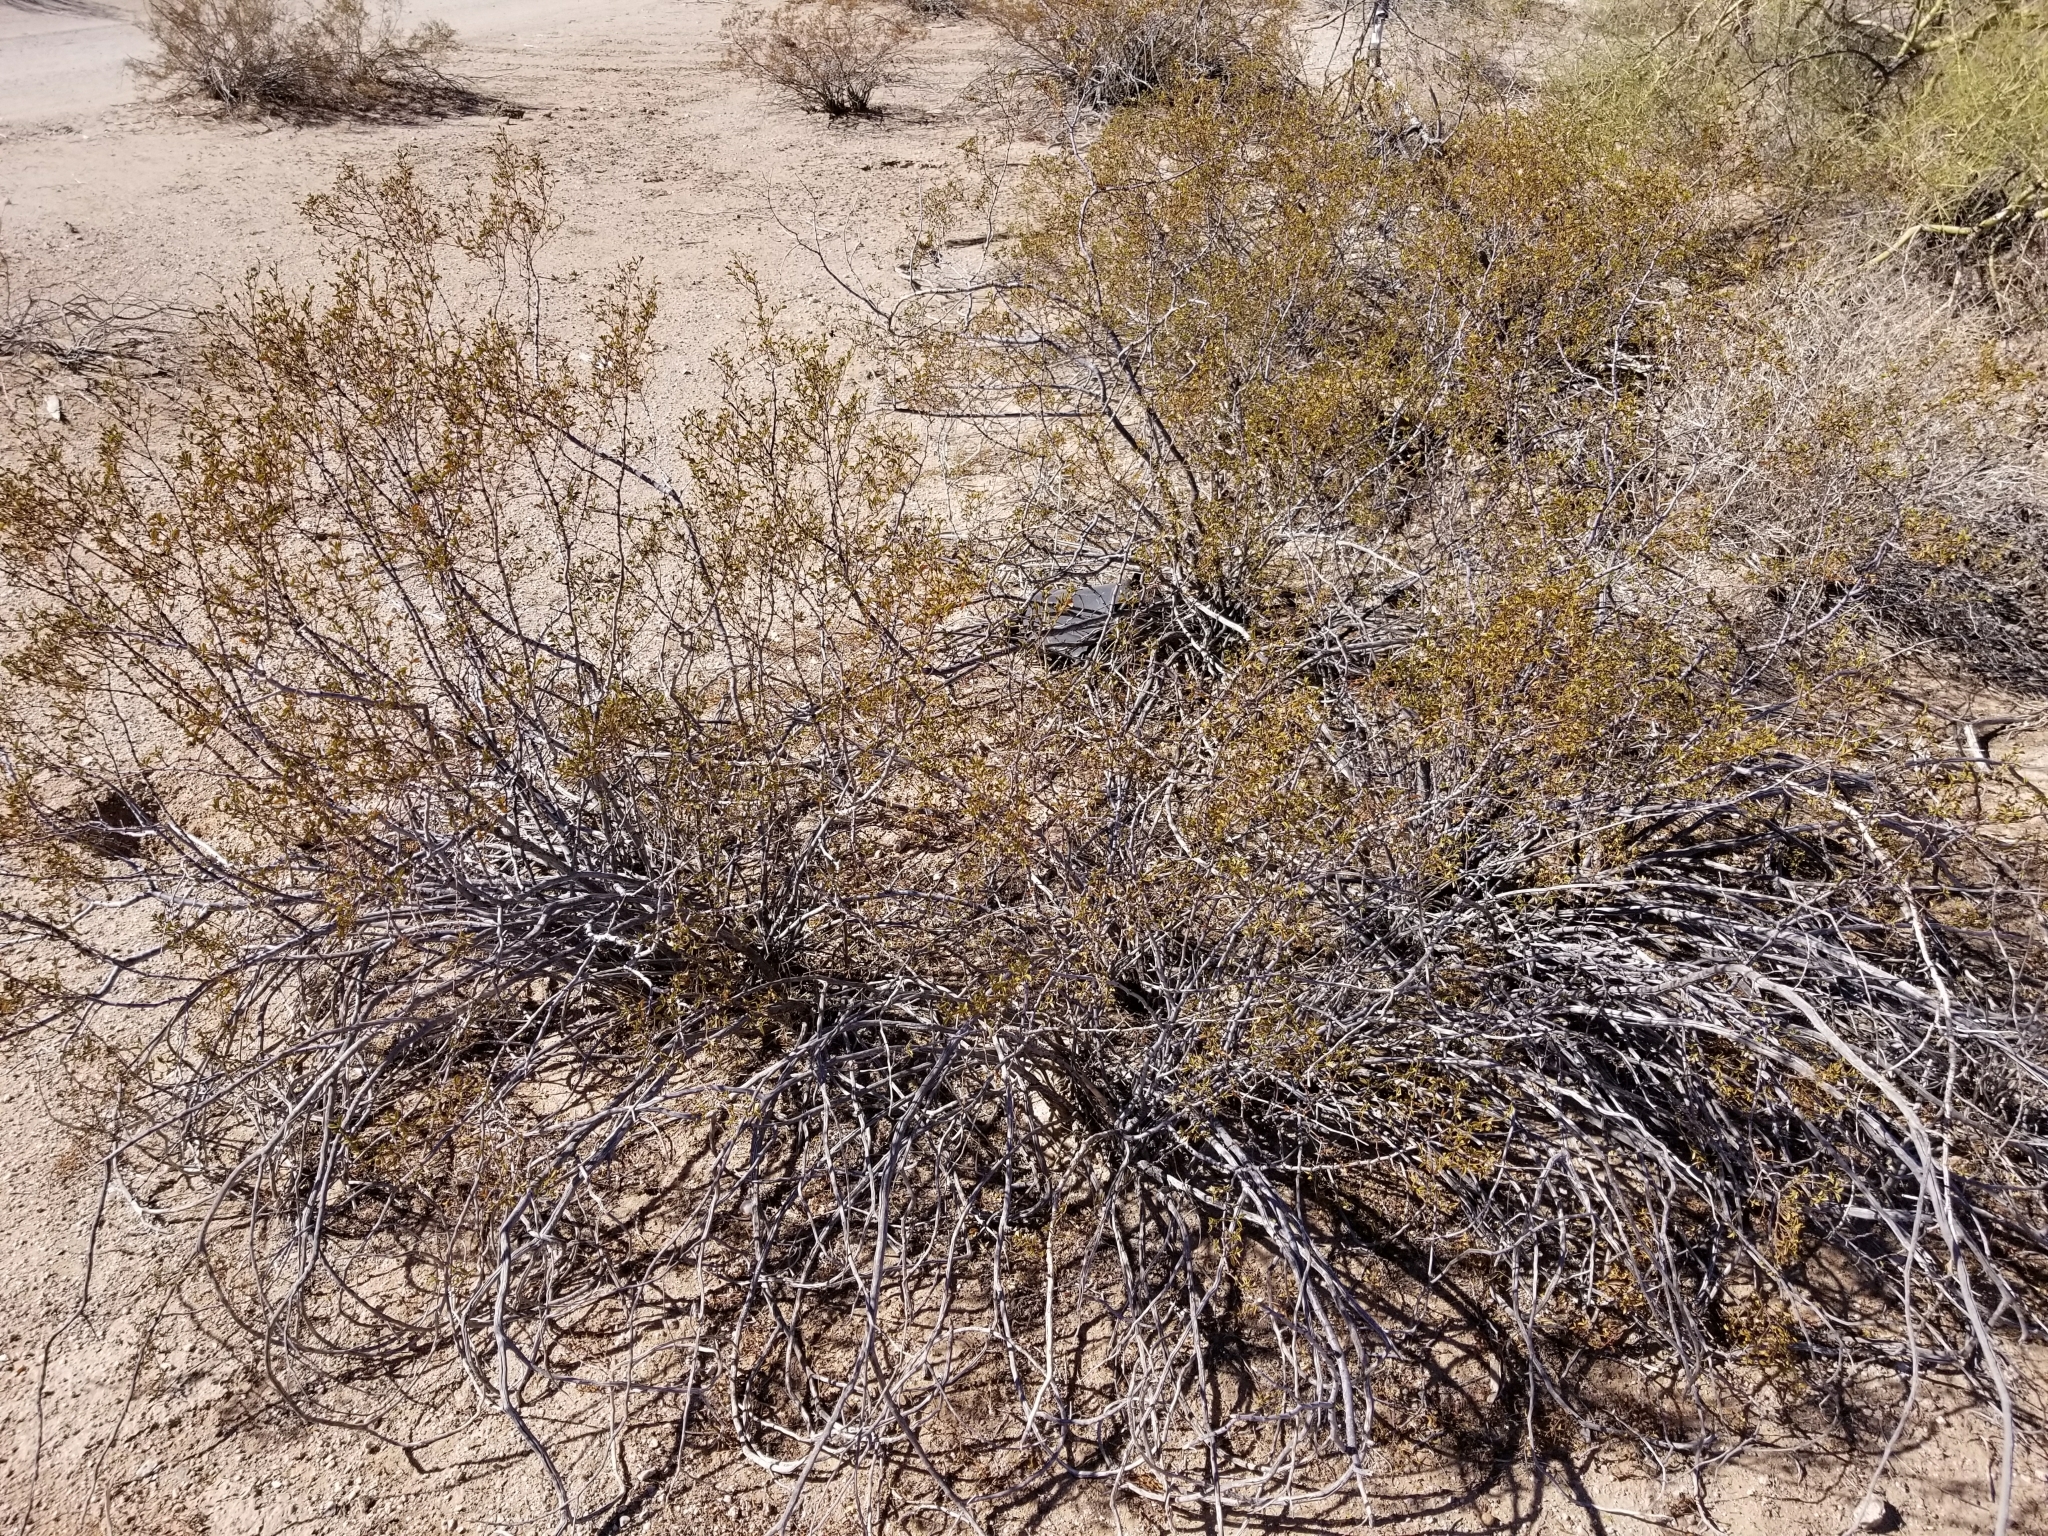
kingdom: Plantae
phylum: Tracheophyta
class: Magnoliopsida
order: Zygophyllales
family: Zygophyllaceae
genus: Larrea
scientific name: Larrea tridentata
